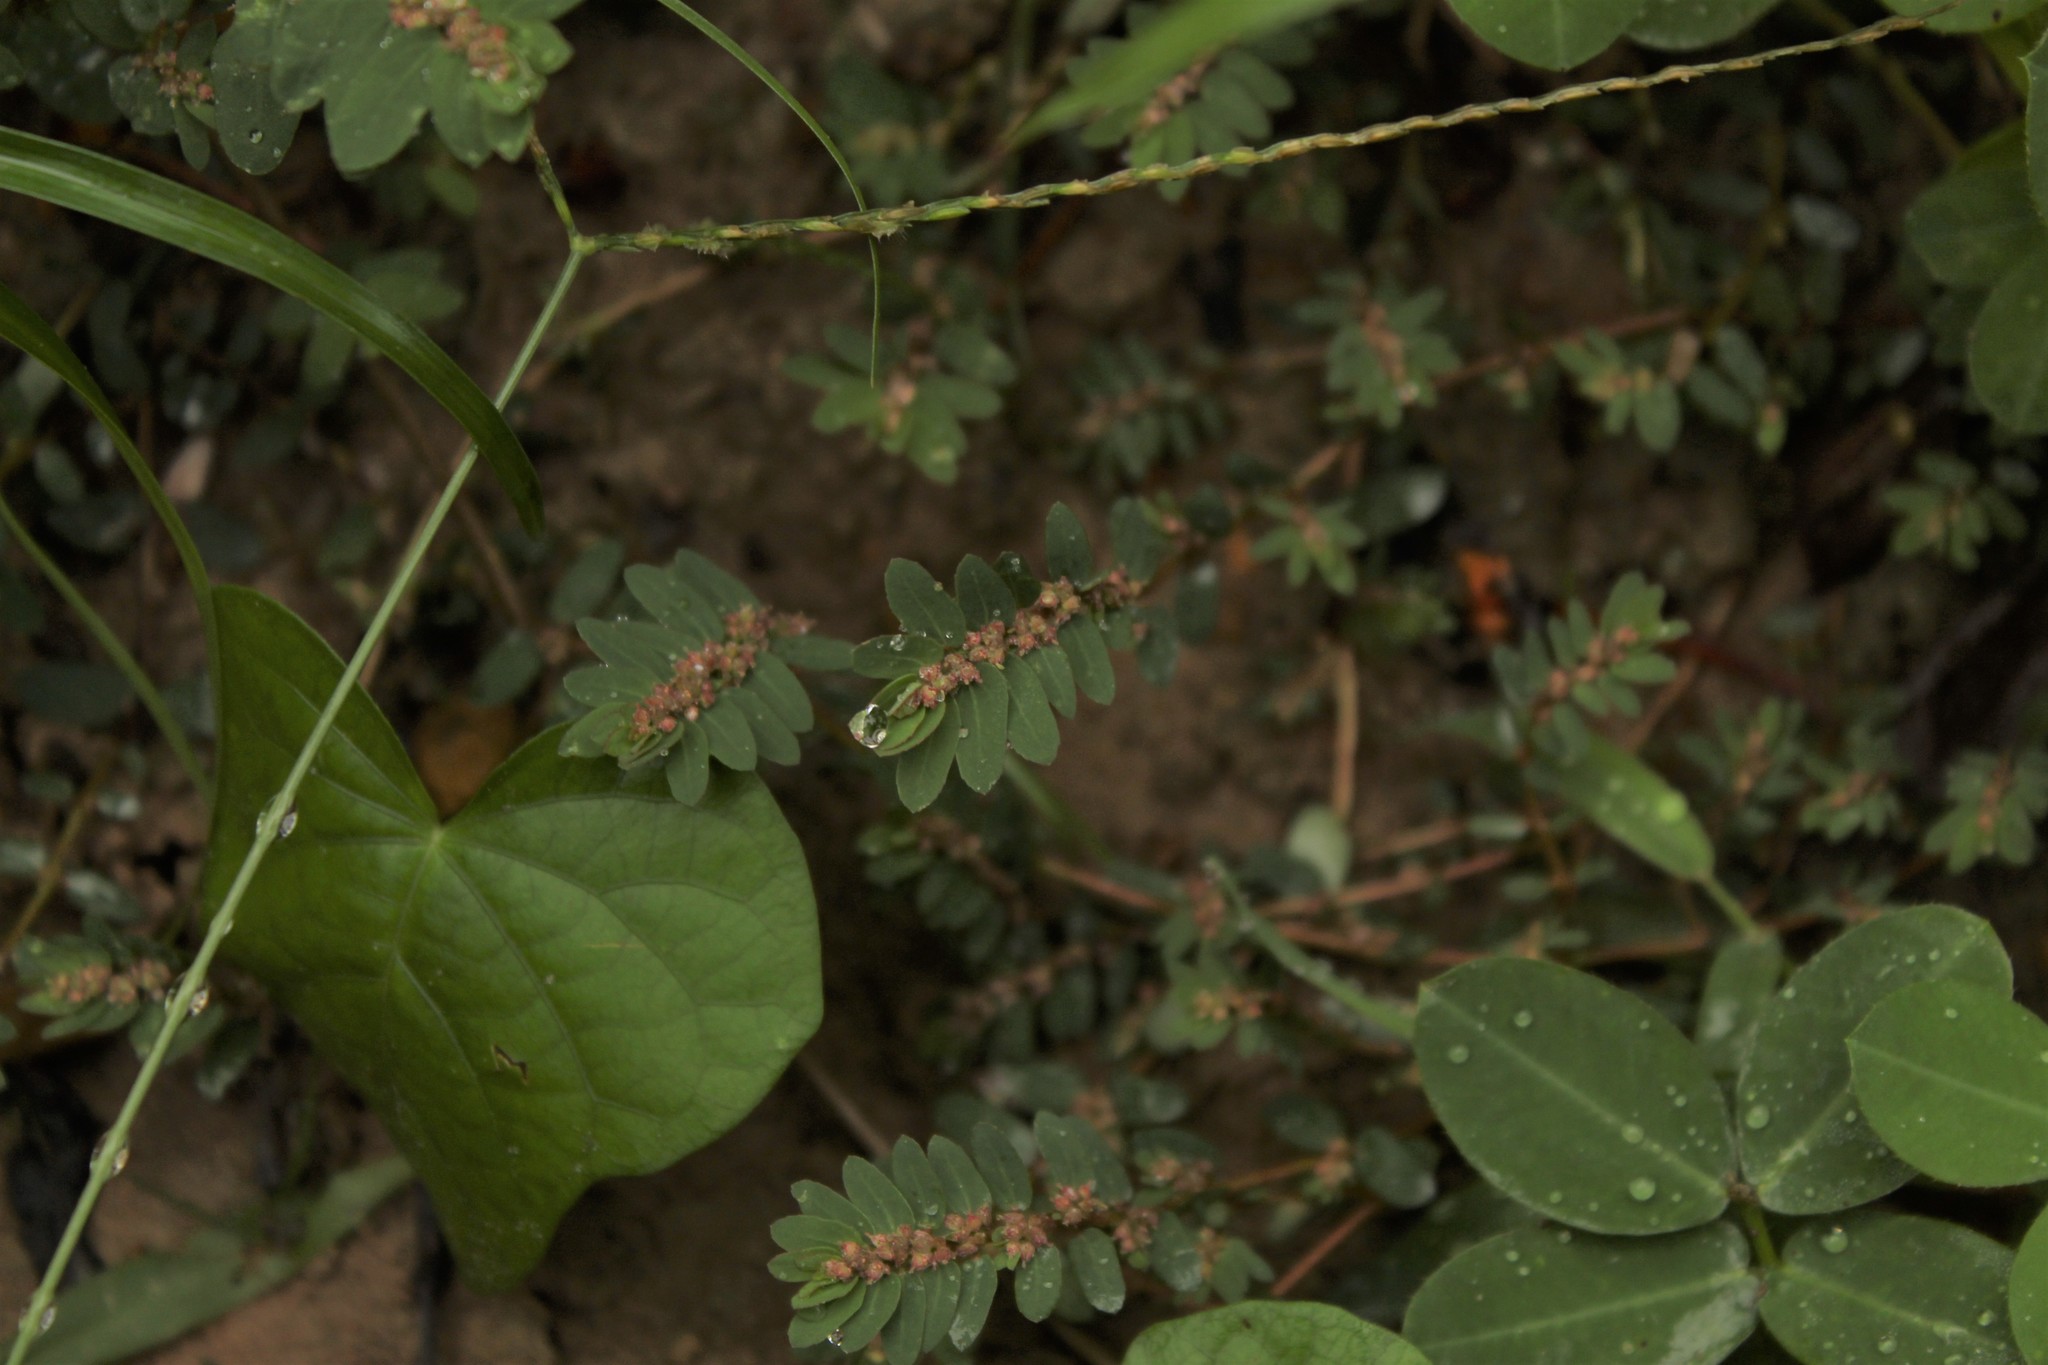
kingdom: Plantae
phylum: Tracheophyta
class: Magnoliopsida
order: Malpighiales
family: Euphorbiaceae
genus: Euphorbia
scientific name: Euphorbia thymifolia
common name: Gulf sandmat
